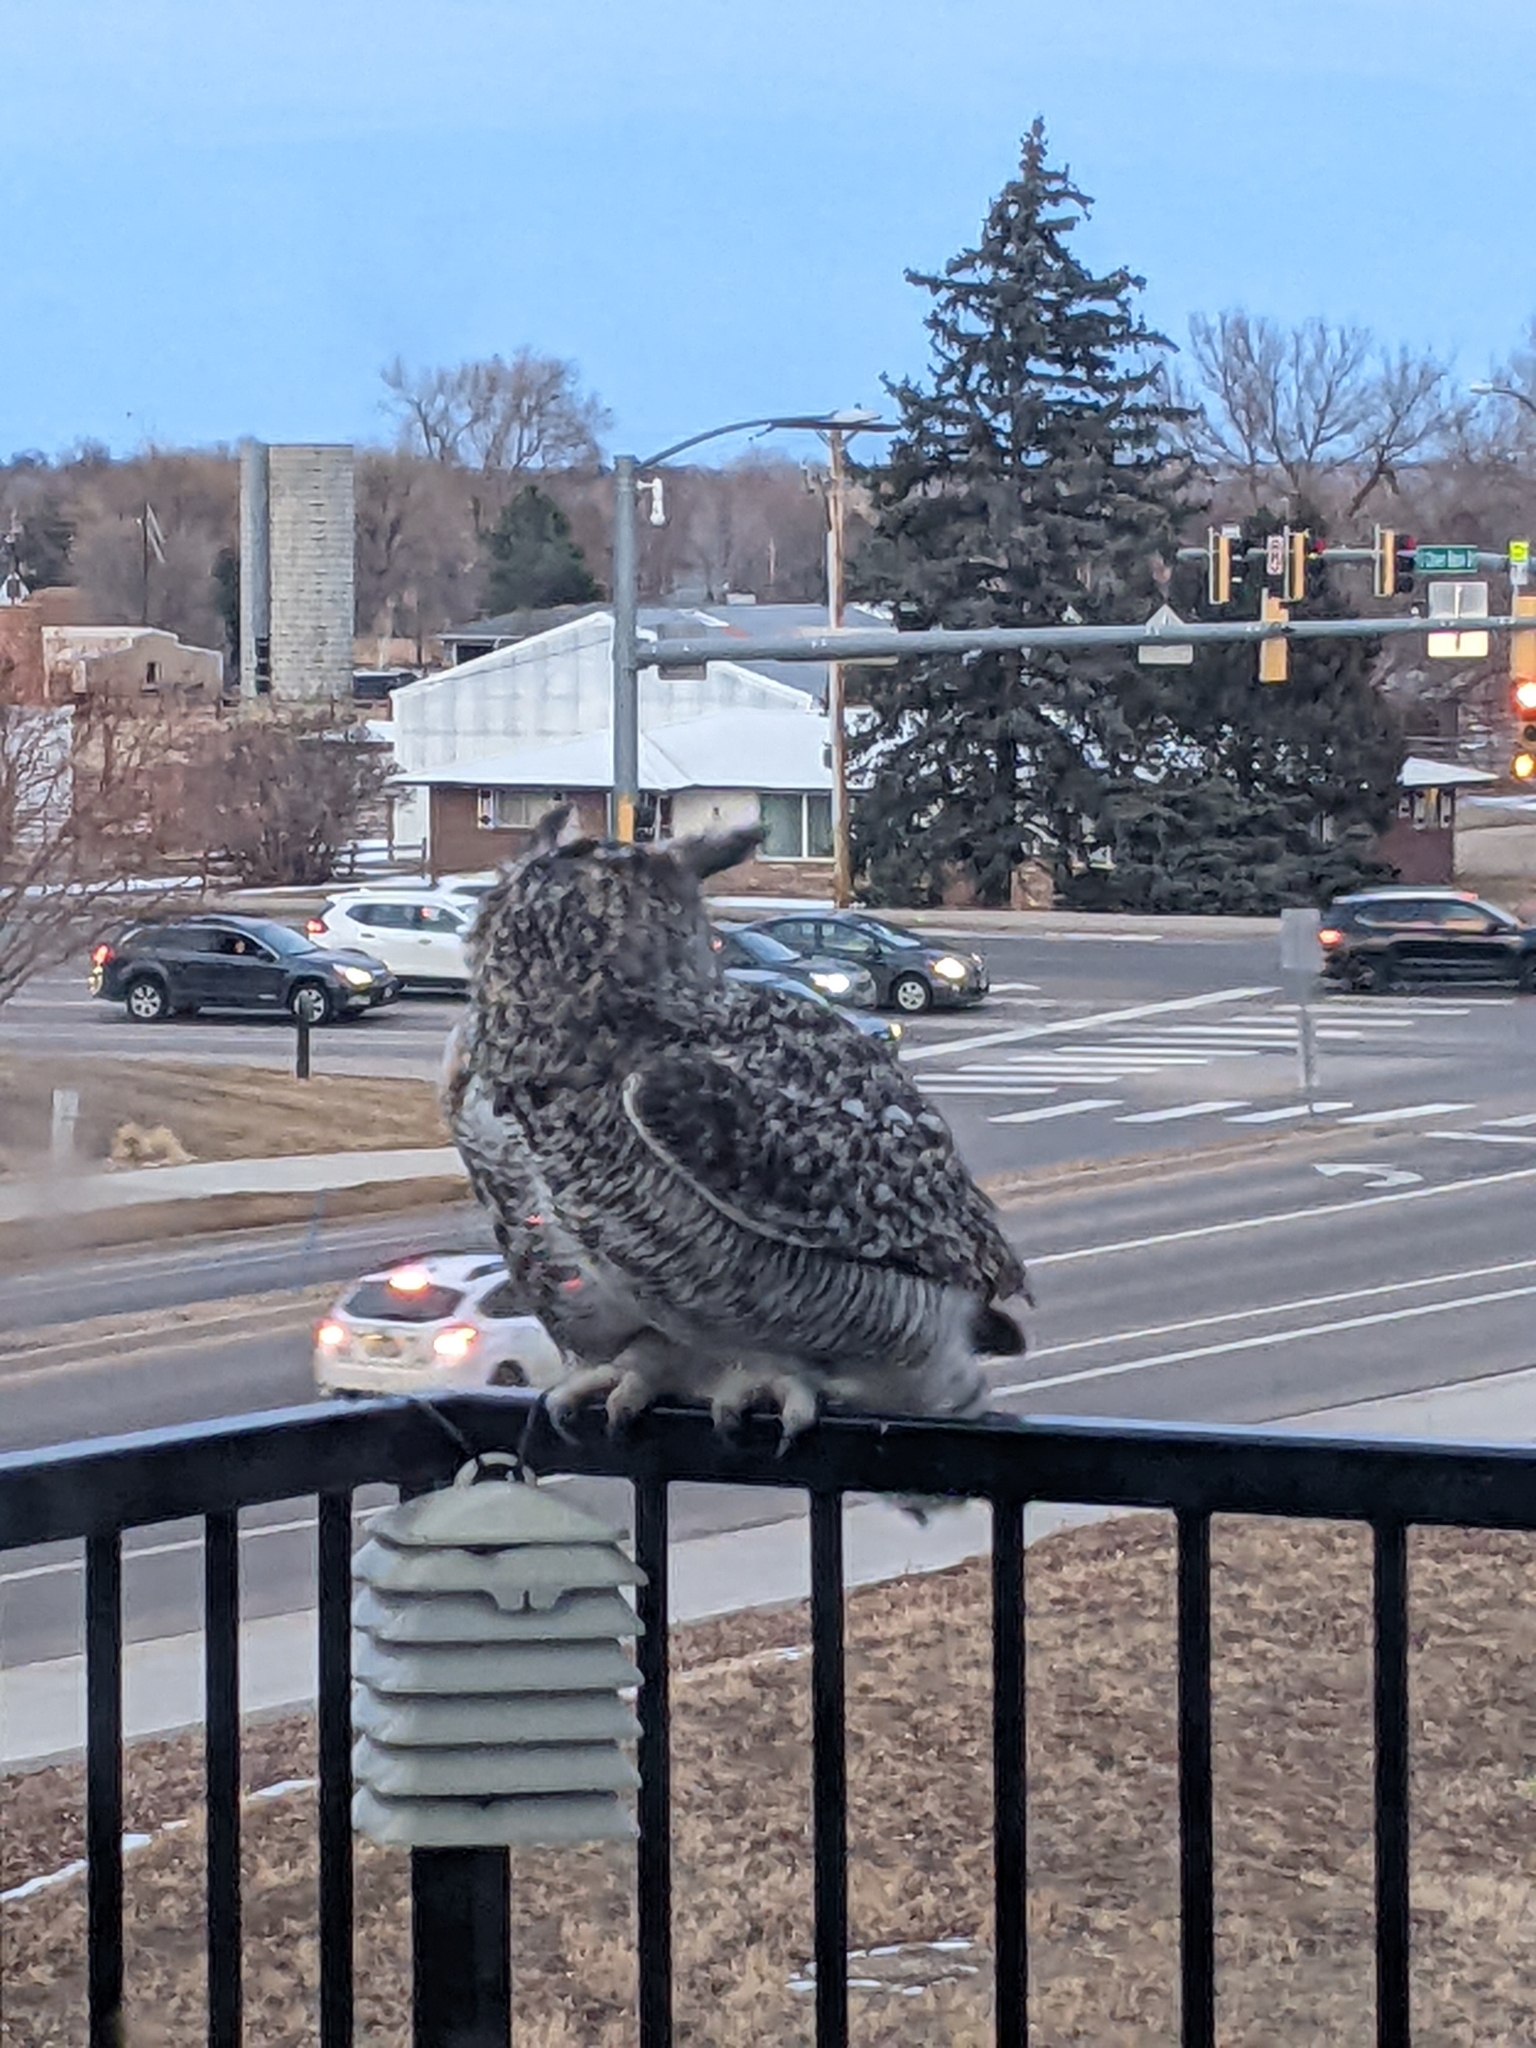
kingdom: Animalia
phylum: Chordata
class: Aves
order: Strigiformes
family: Strigidae
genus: Bubo
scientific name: Bubo virginianus
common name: Great horned owl
